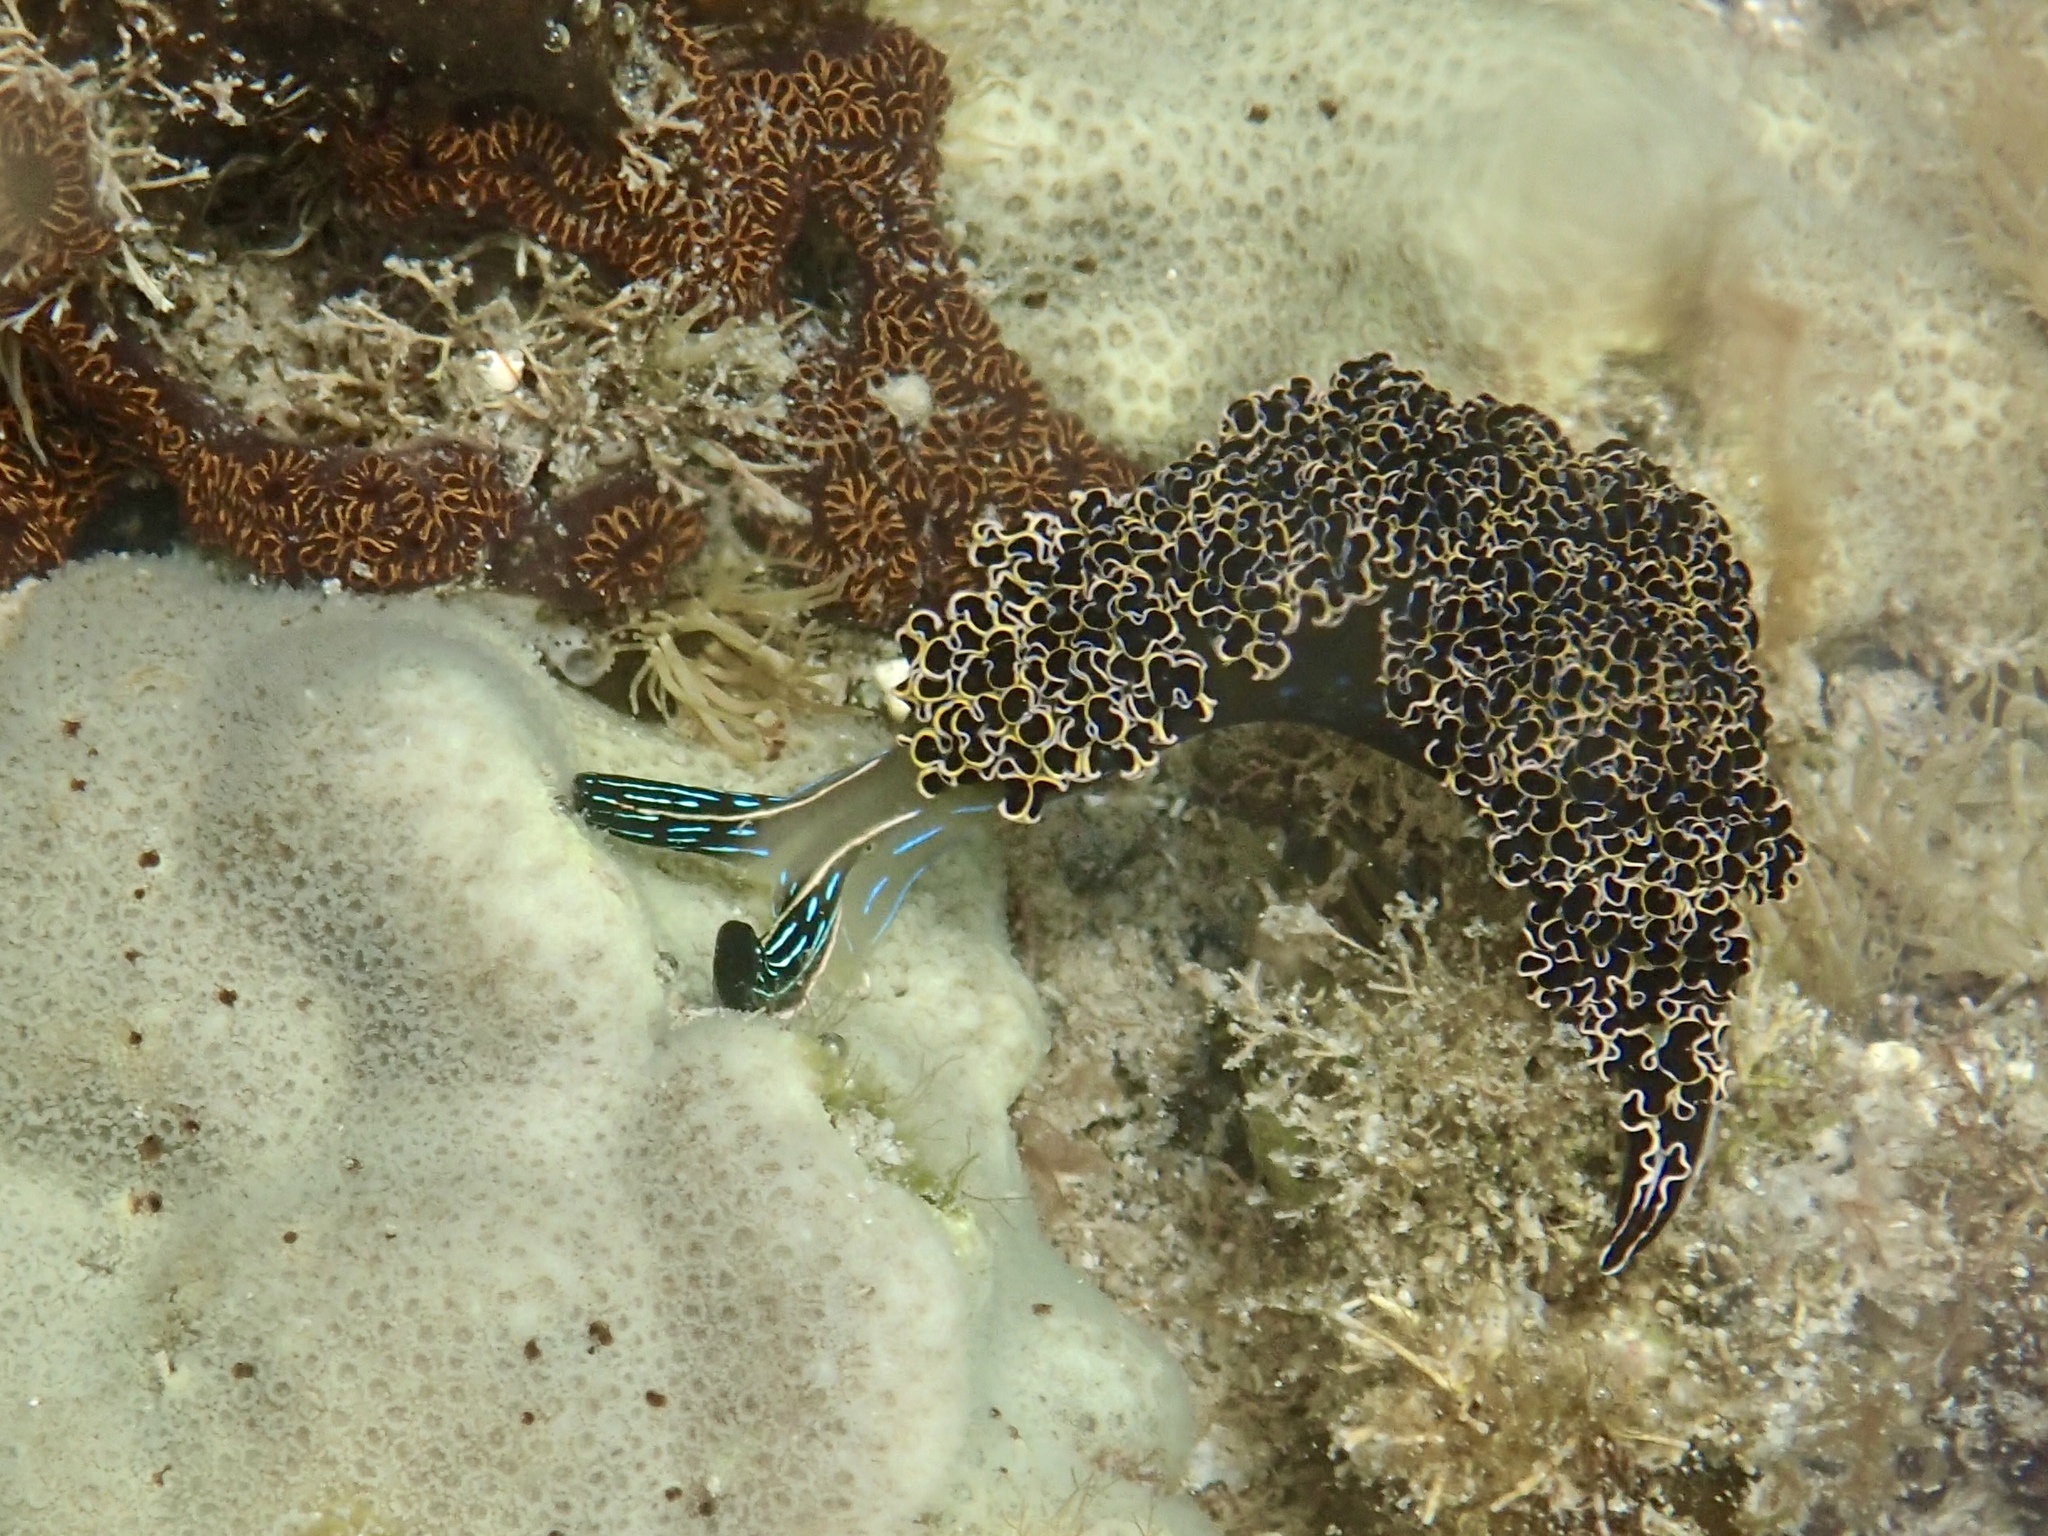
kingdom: Animalia
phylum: Mollusca
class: Gastropoda
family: Plakobranchidae
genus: Elysia
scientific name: Elysia diomedea
